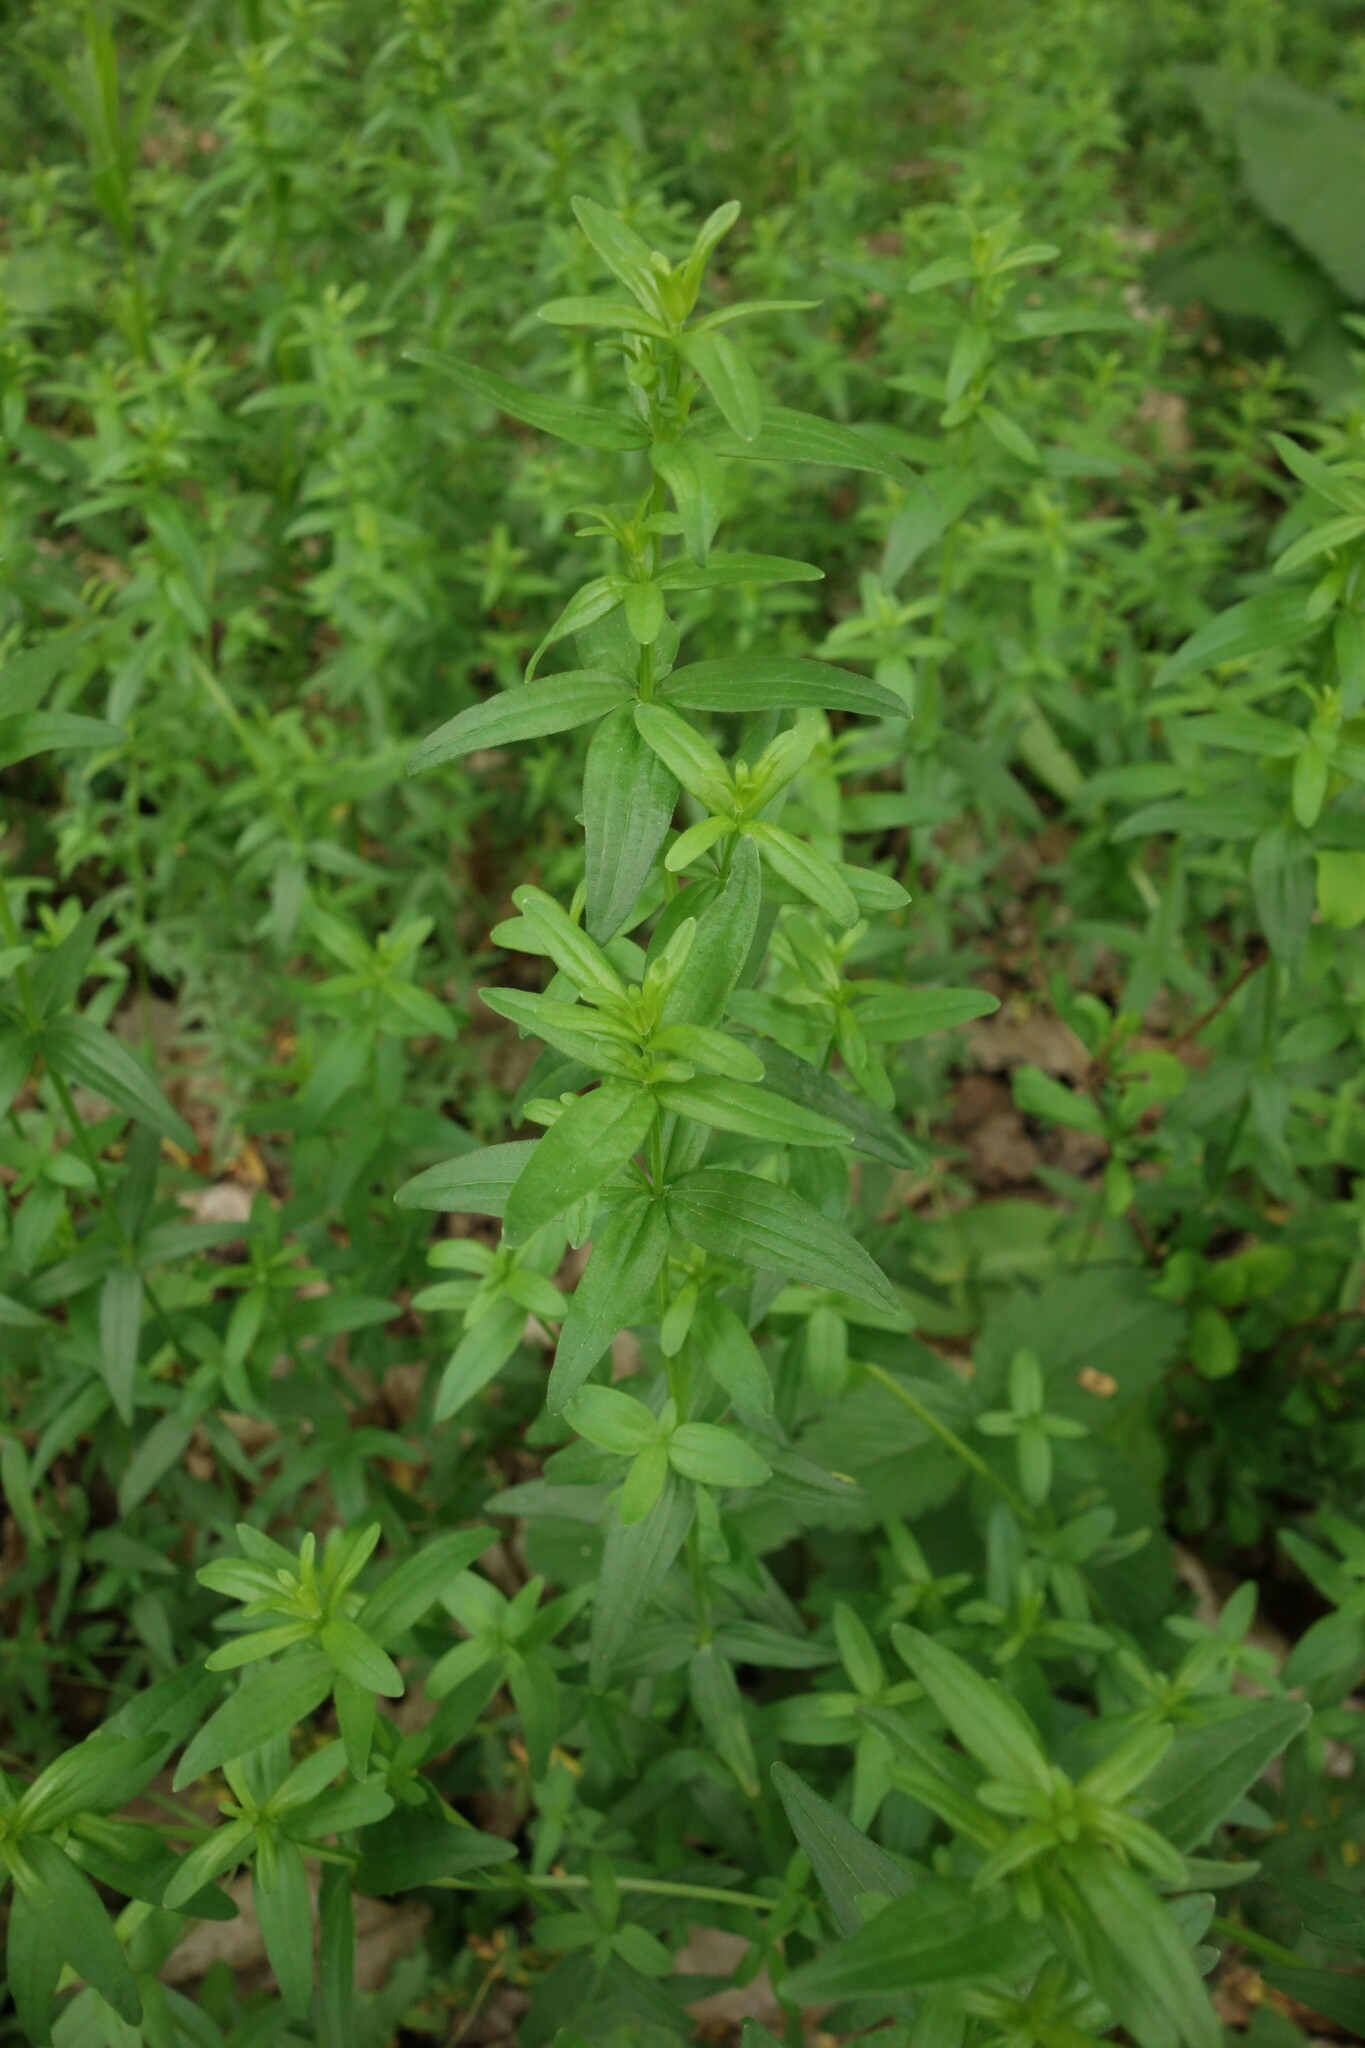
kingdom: Plantae
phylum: Tracheophyta
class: Magnoliopsida
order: Gentianales
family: Rubiaceae
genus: Galium
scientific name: Galium boreale
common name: Northern bedstraw
